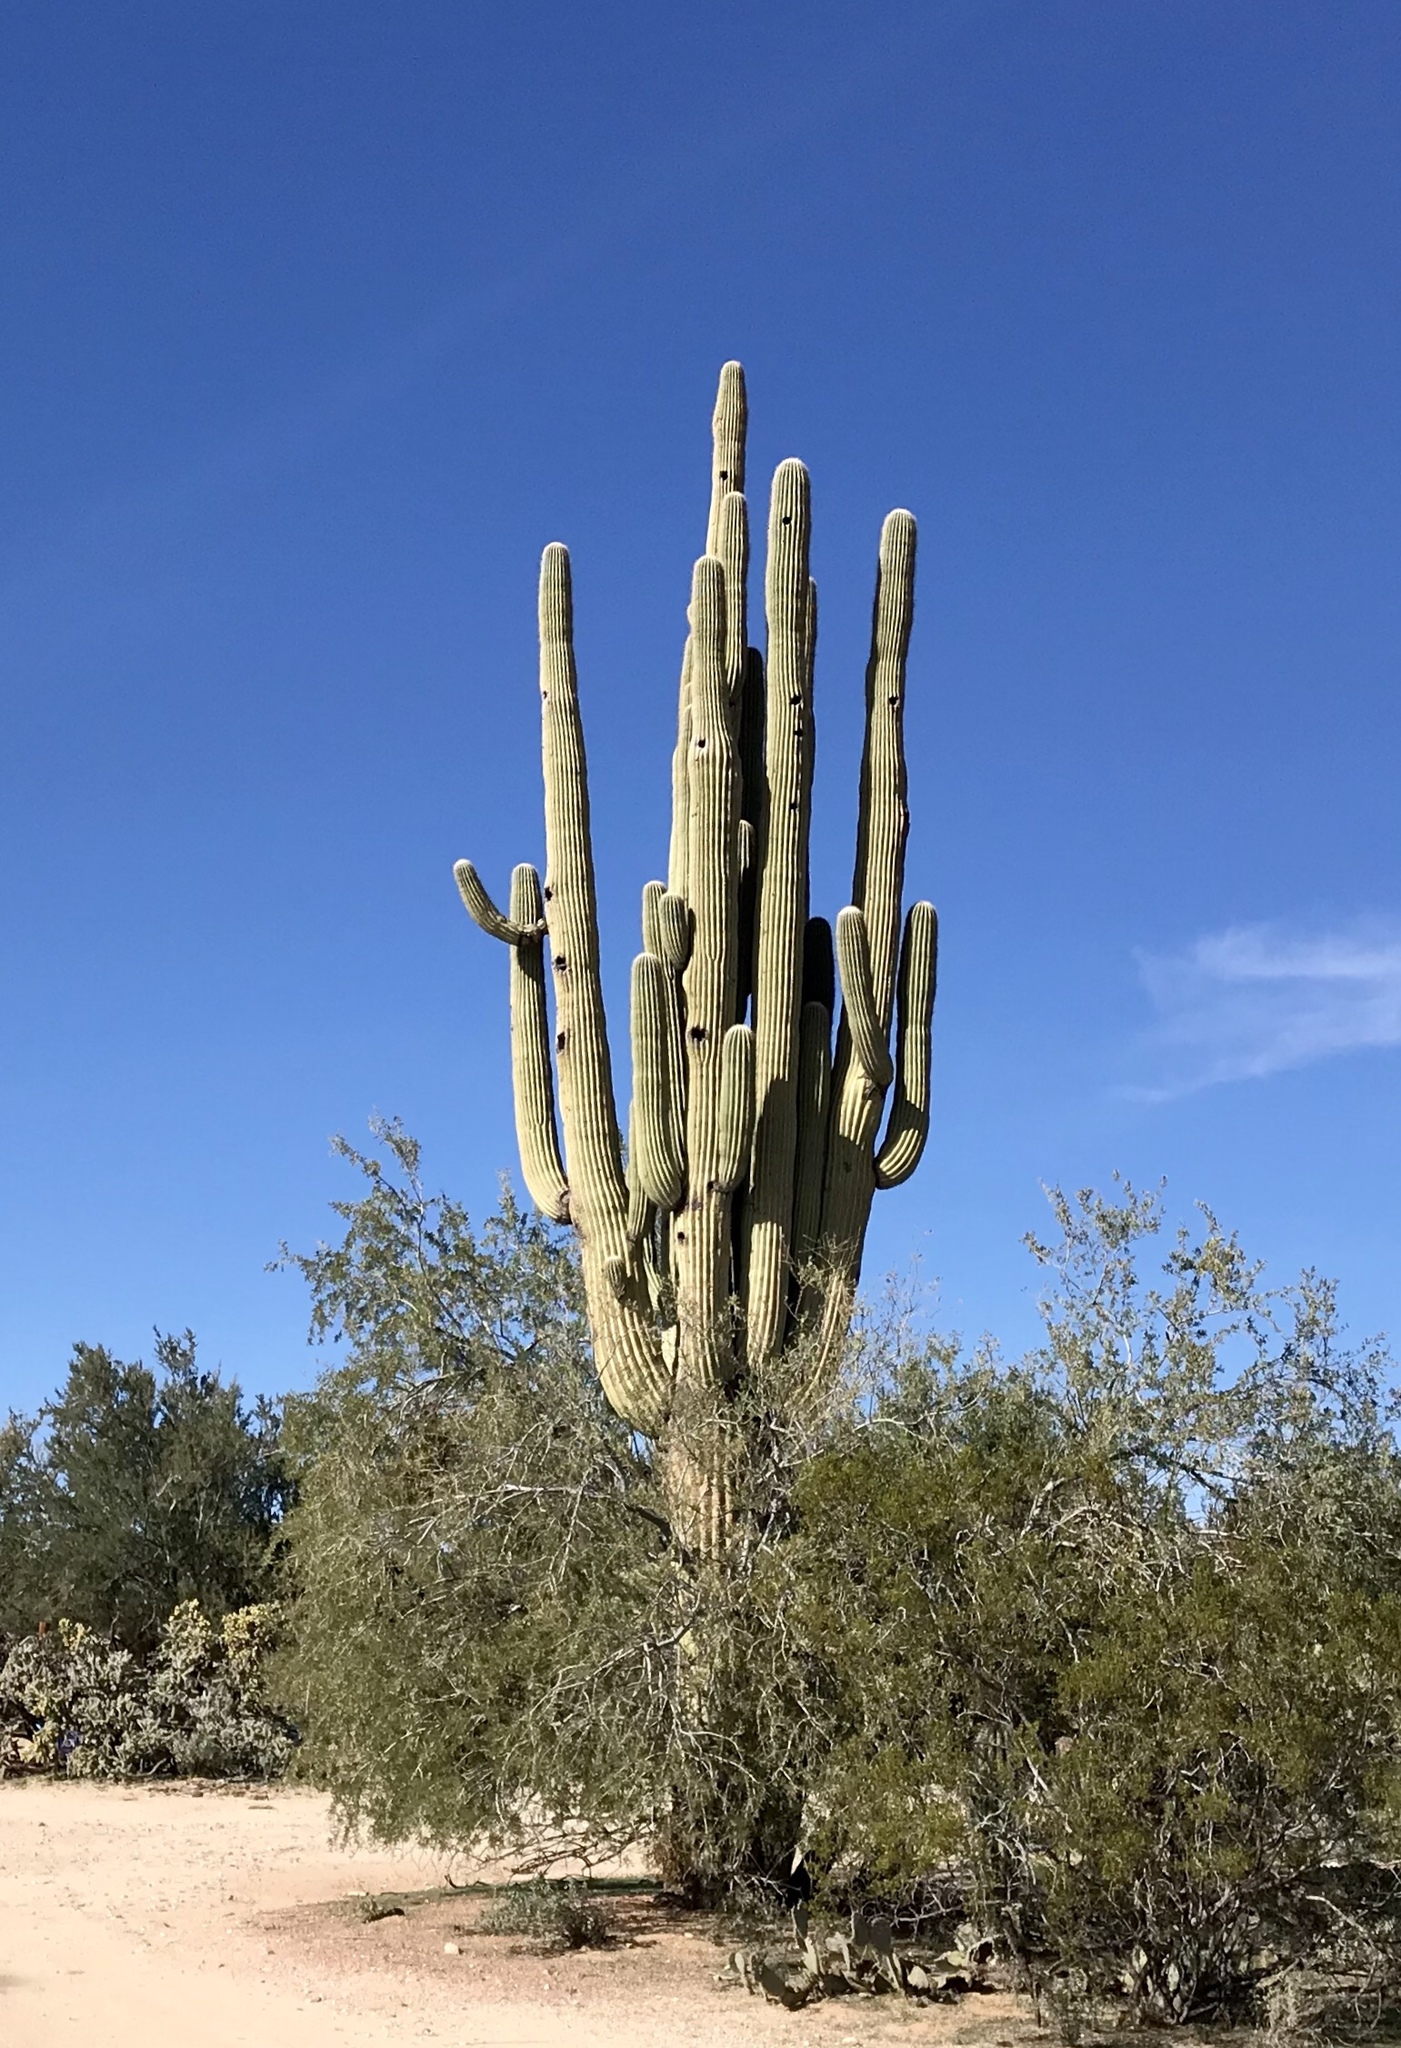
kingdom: Plantae
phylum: Tracheophyta
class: Magnoliopsida
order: Caryophyllales
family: Cactaceae
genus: Carnegiea
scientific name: Carnegiea gigantea
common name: Saguaro
